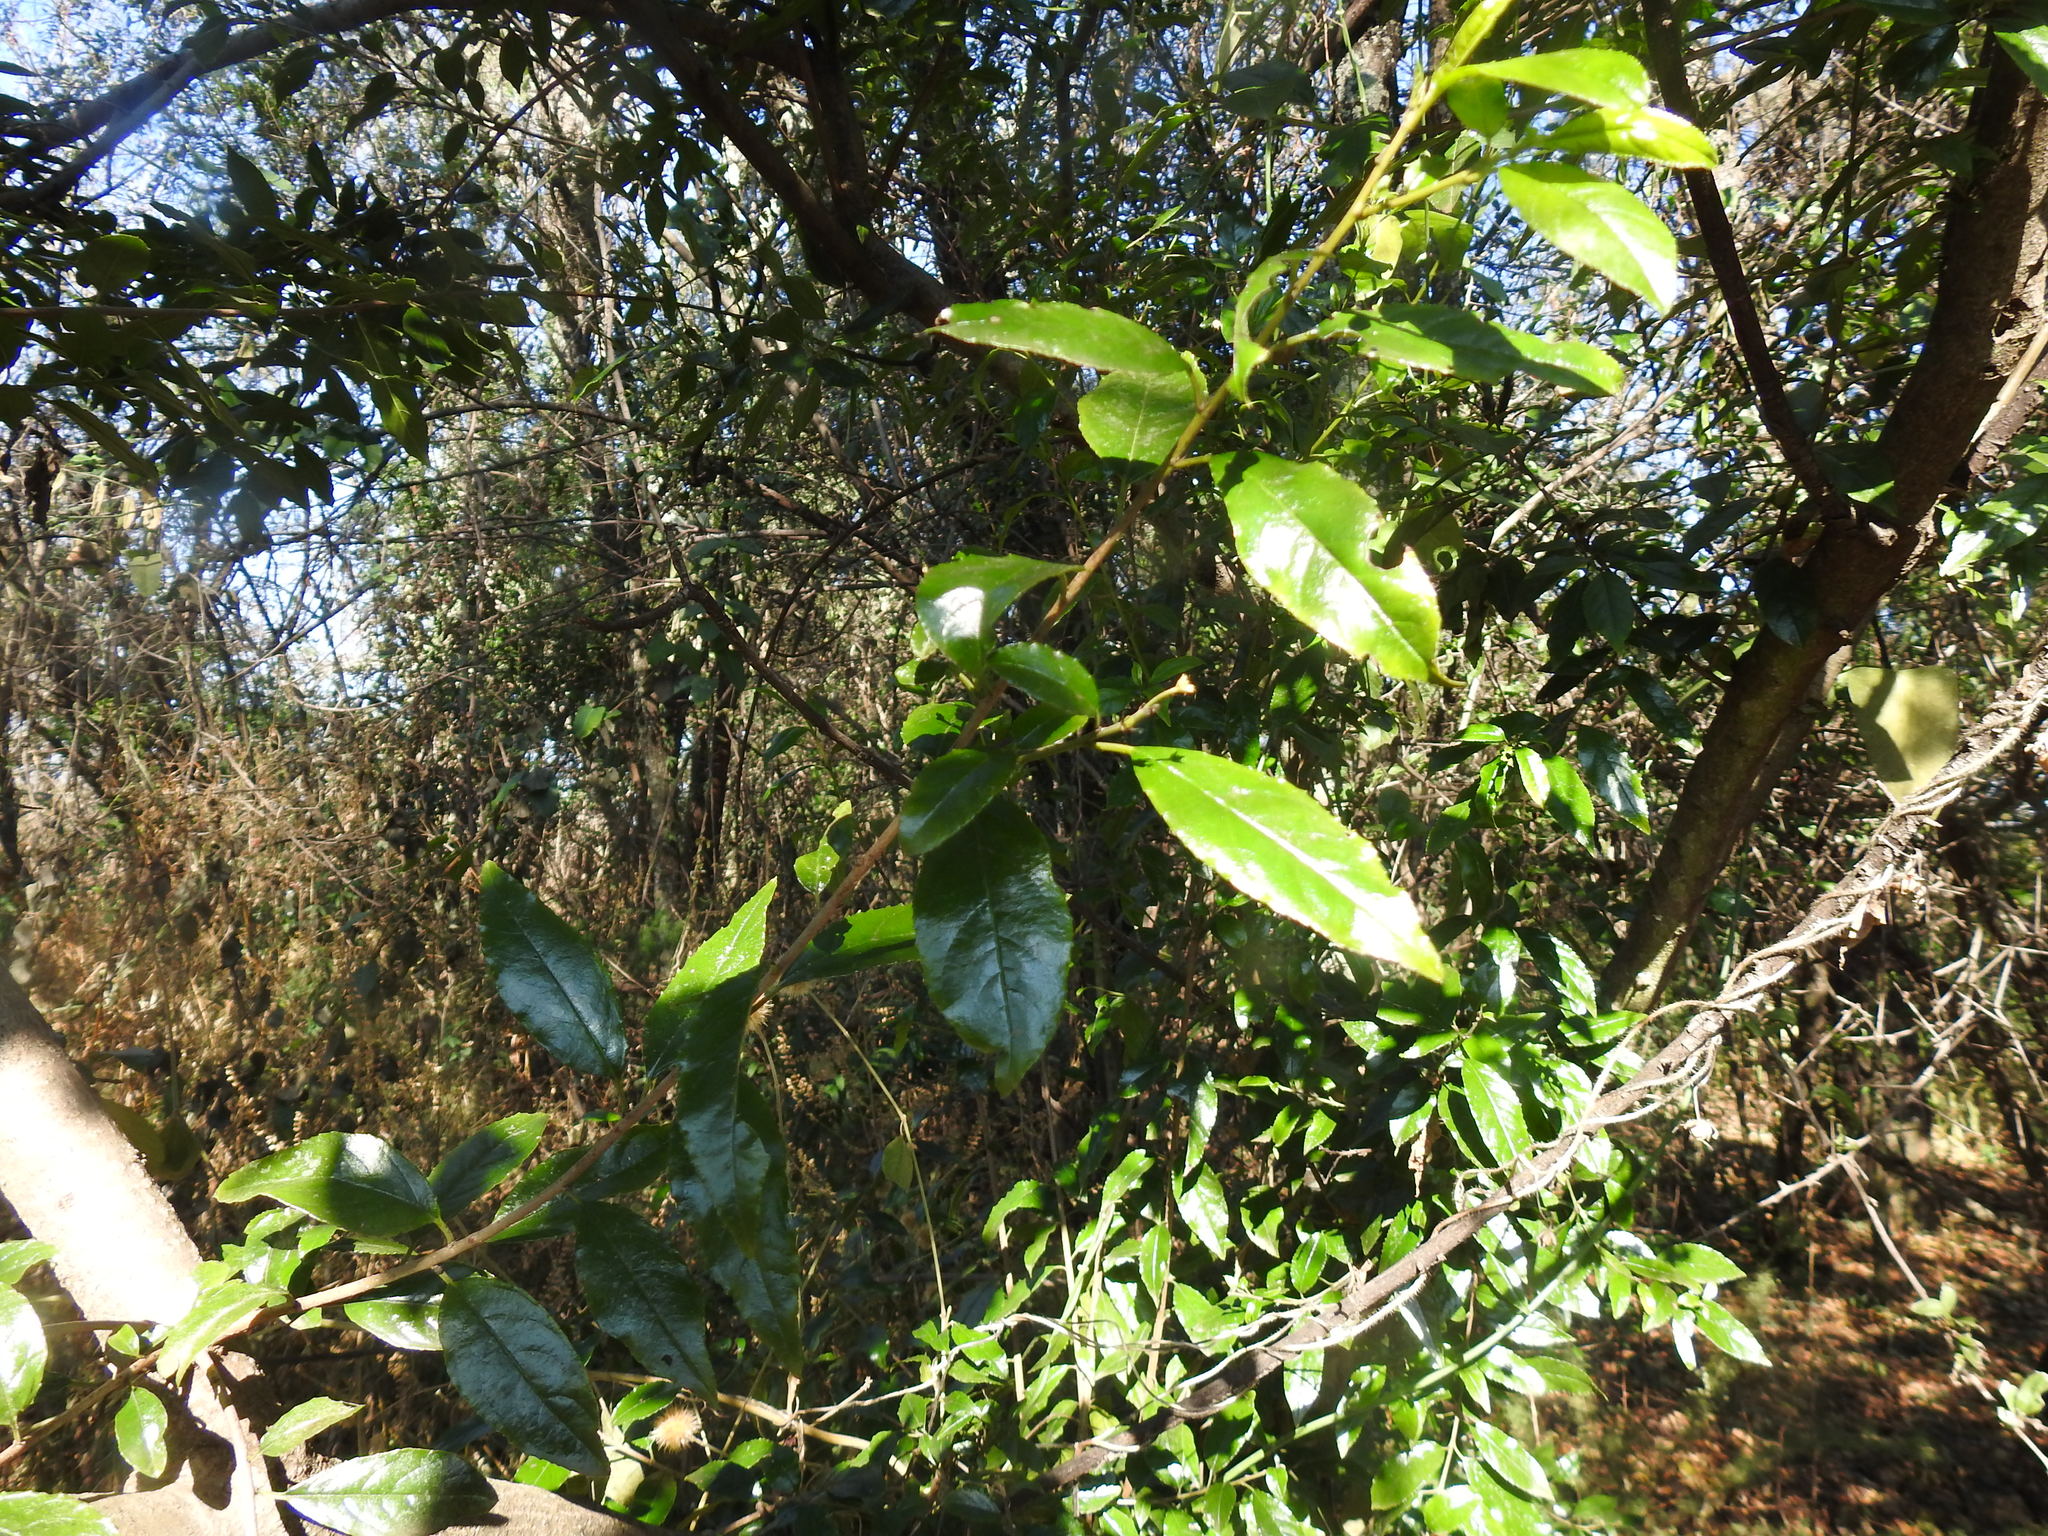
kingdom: Plantae
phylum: Tracheophyta
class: Magnoliopsida
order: Rosales
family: Rhamnaceae
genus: Rhamnus
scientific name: Rhamnus prinoides
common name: Dogwood
